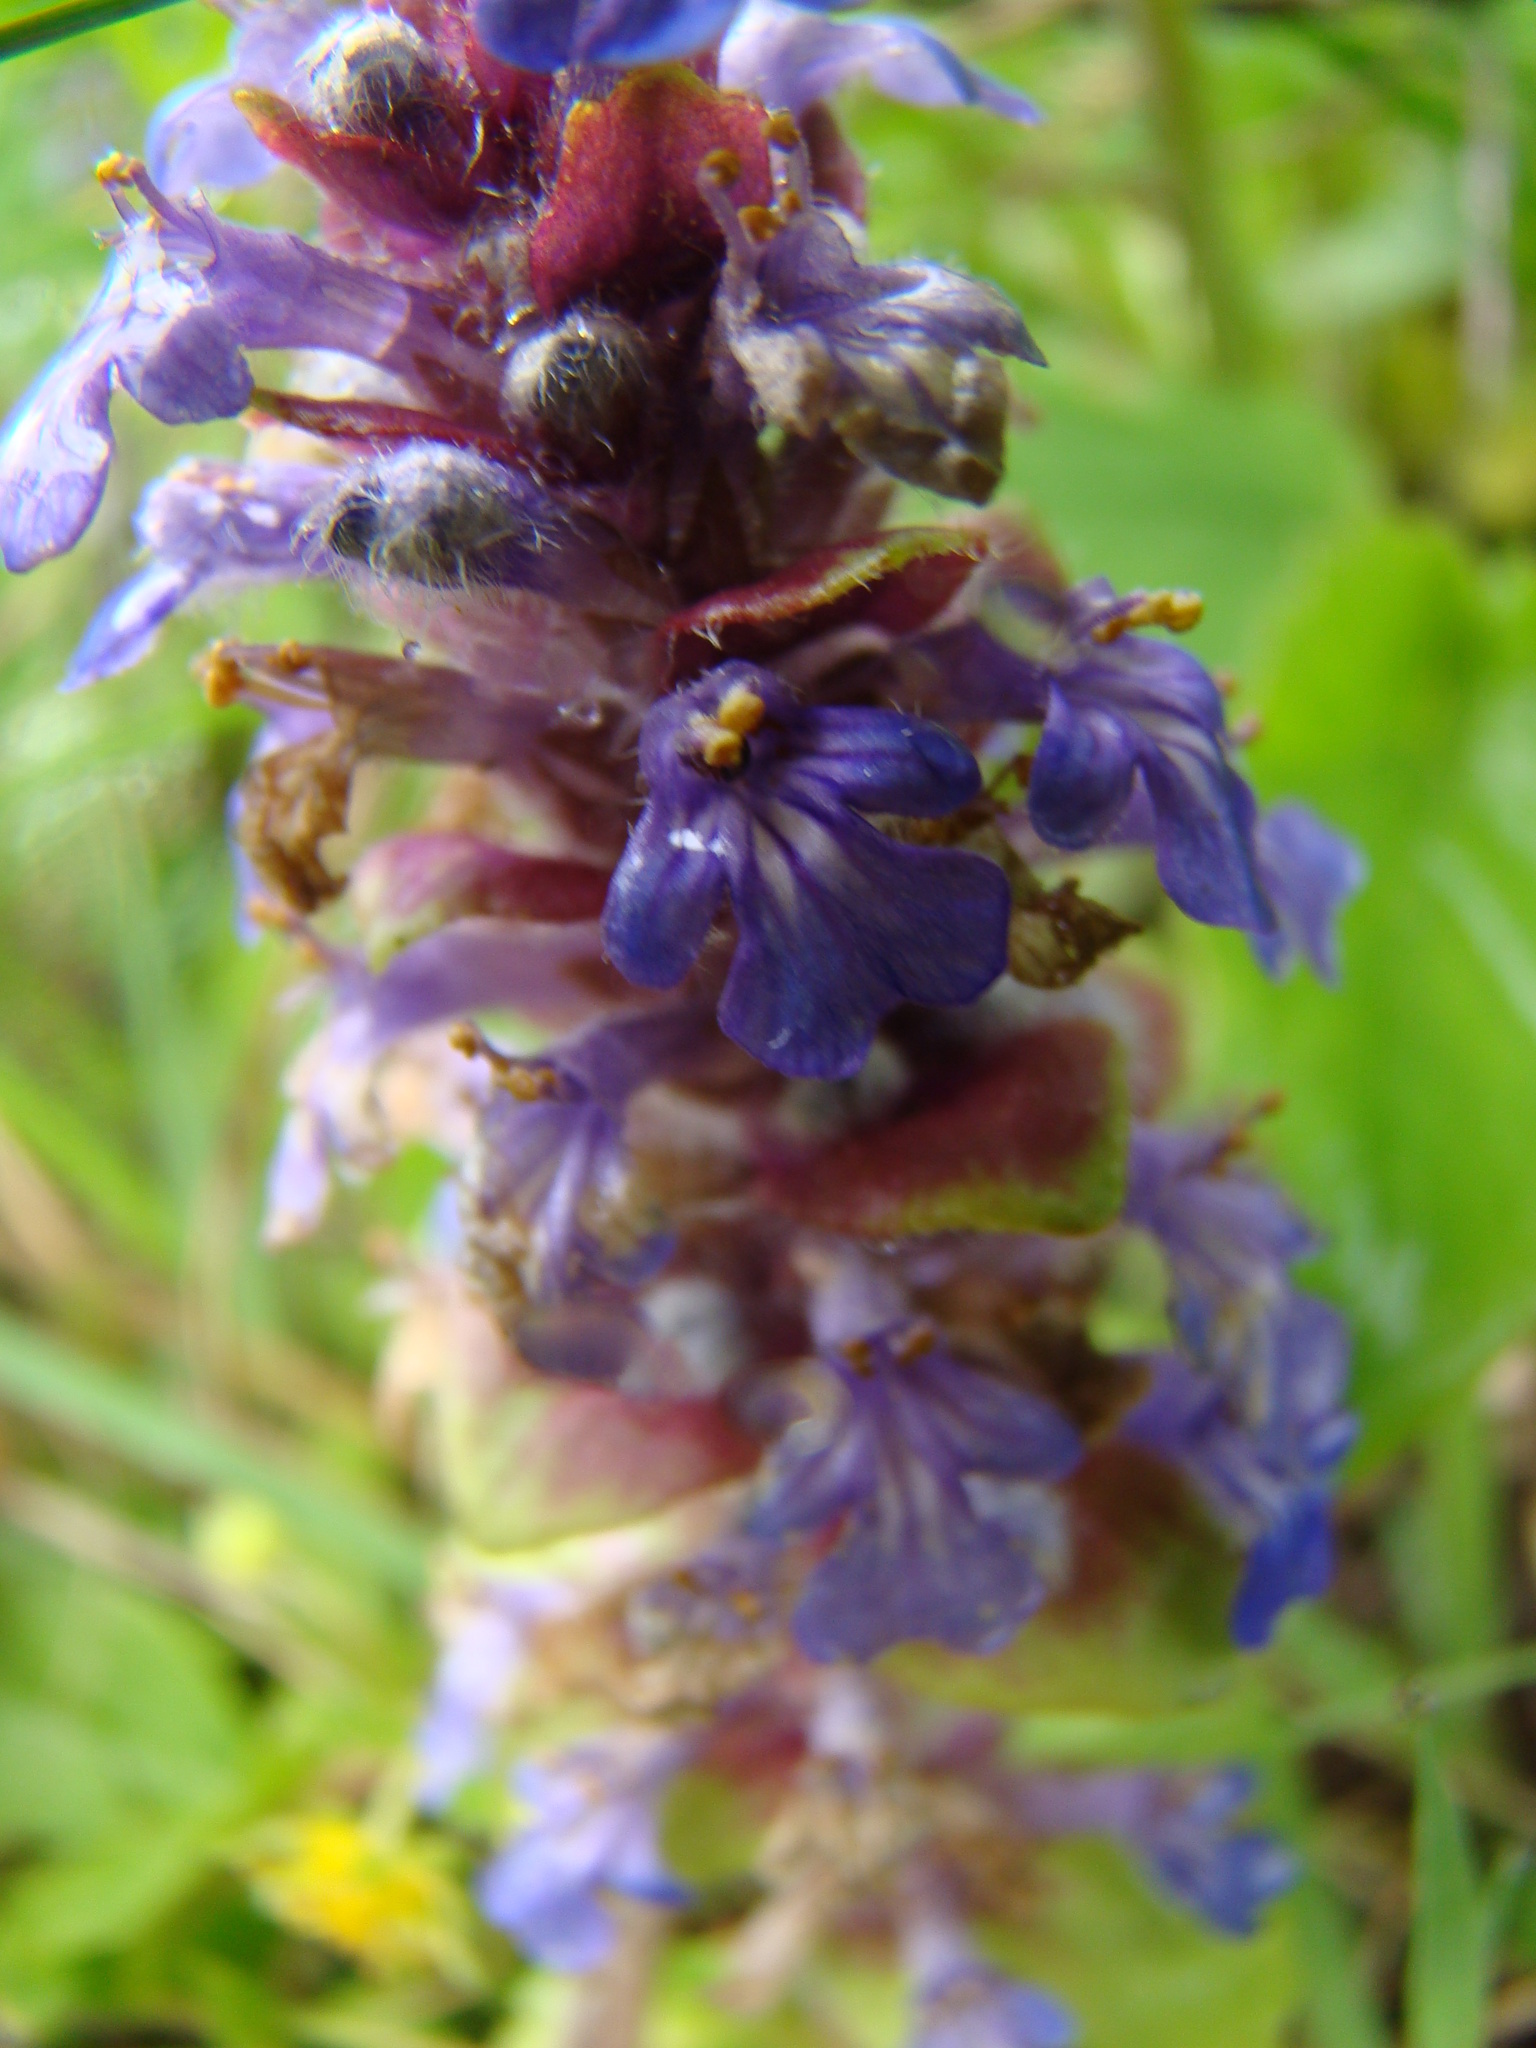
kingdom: Plantae
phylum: Tracheophyta
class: Magnoliopsida
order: Lamiales
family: Lamiaceae
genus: Ajuga
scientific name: Ajuga reptans
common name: Bugle
